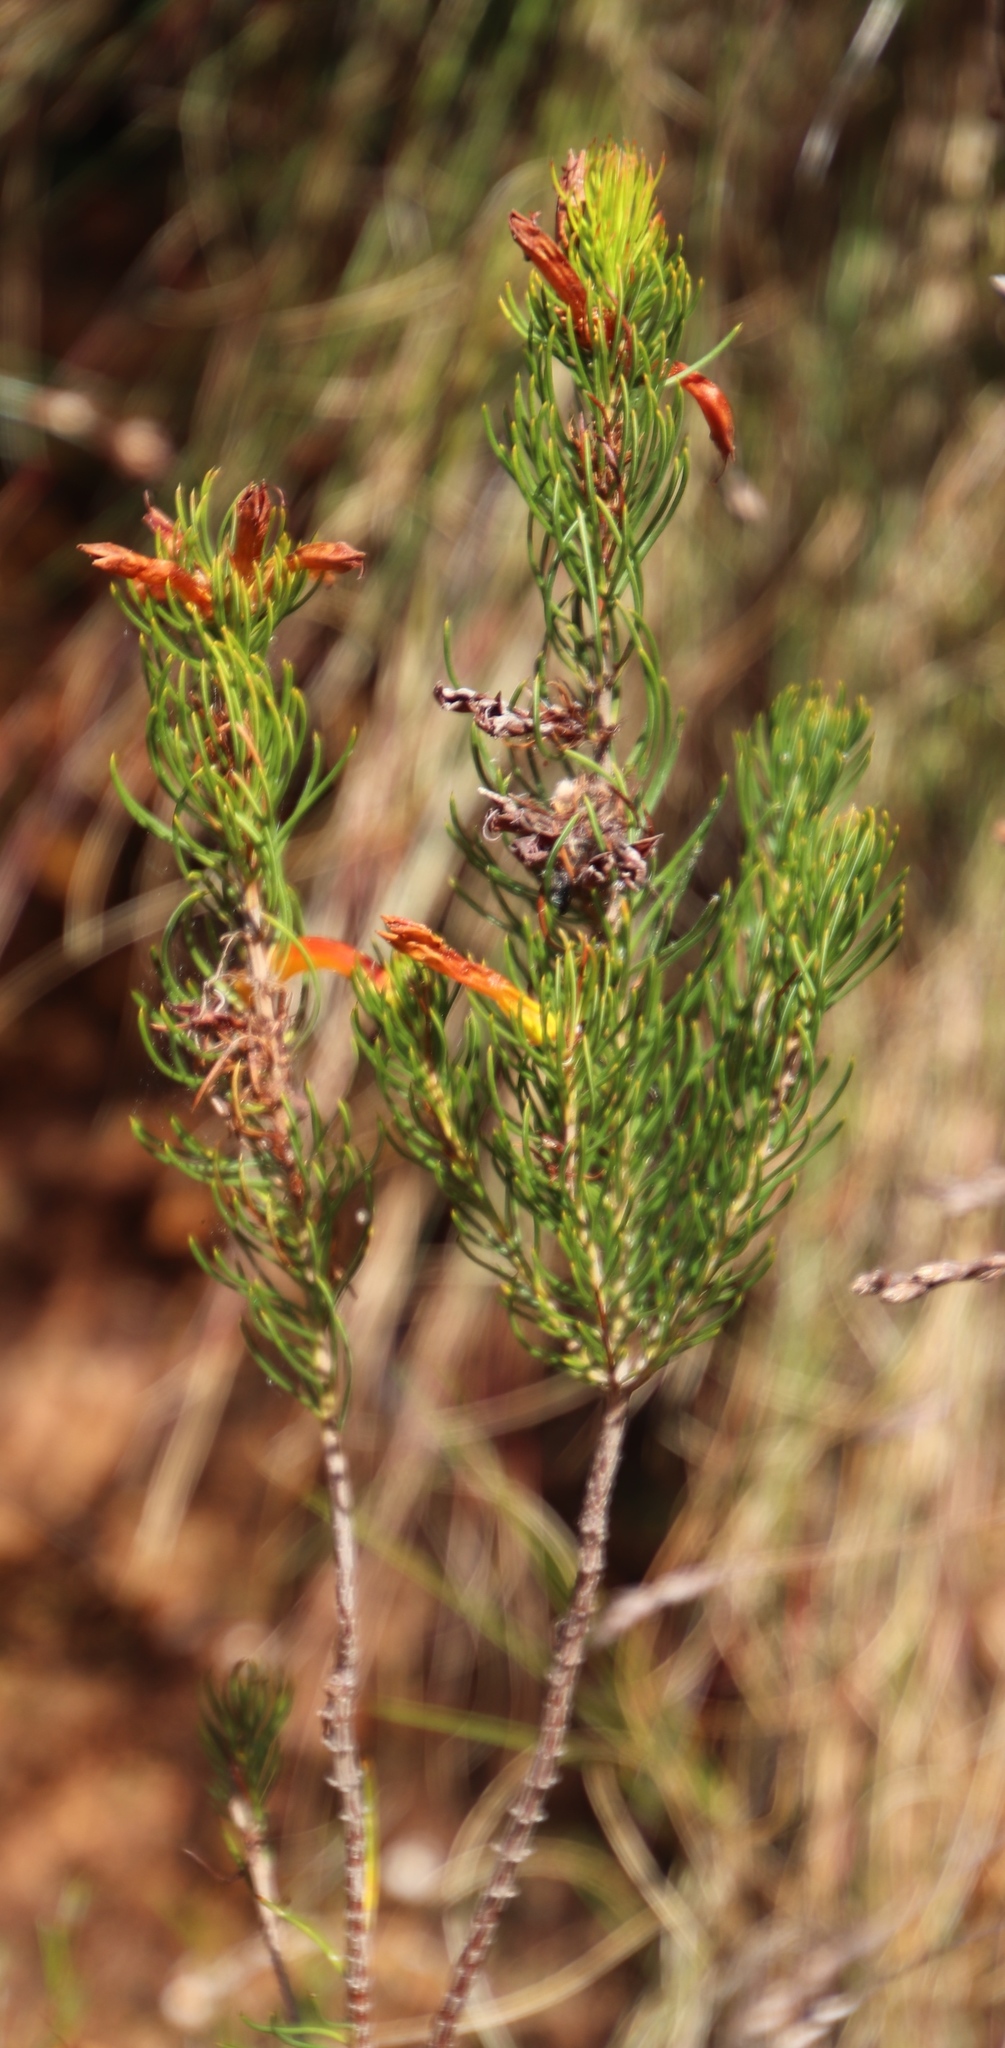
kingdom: Plantae
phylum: Tracheophyta
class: Magnoliopsida
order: Ericales
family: Ericaceae
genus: Erica
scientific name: Erica grandiflora
